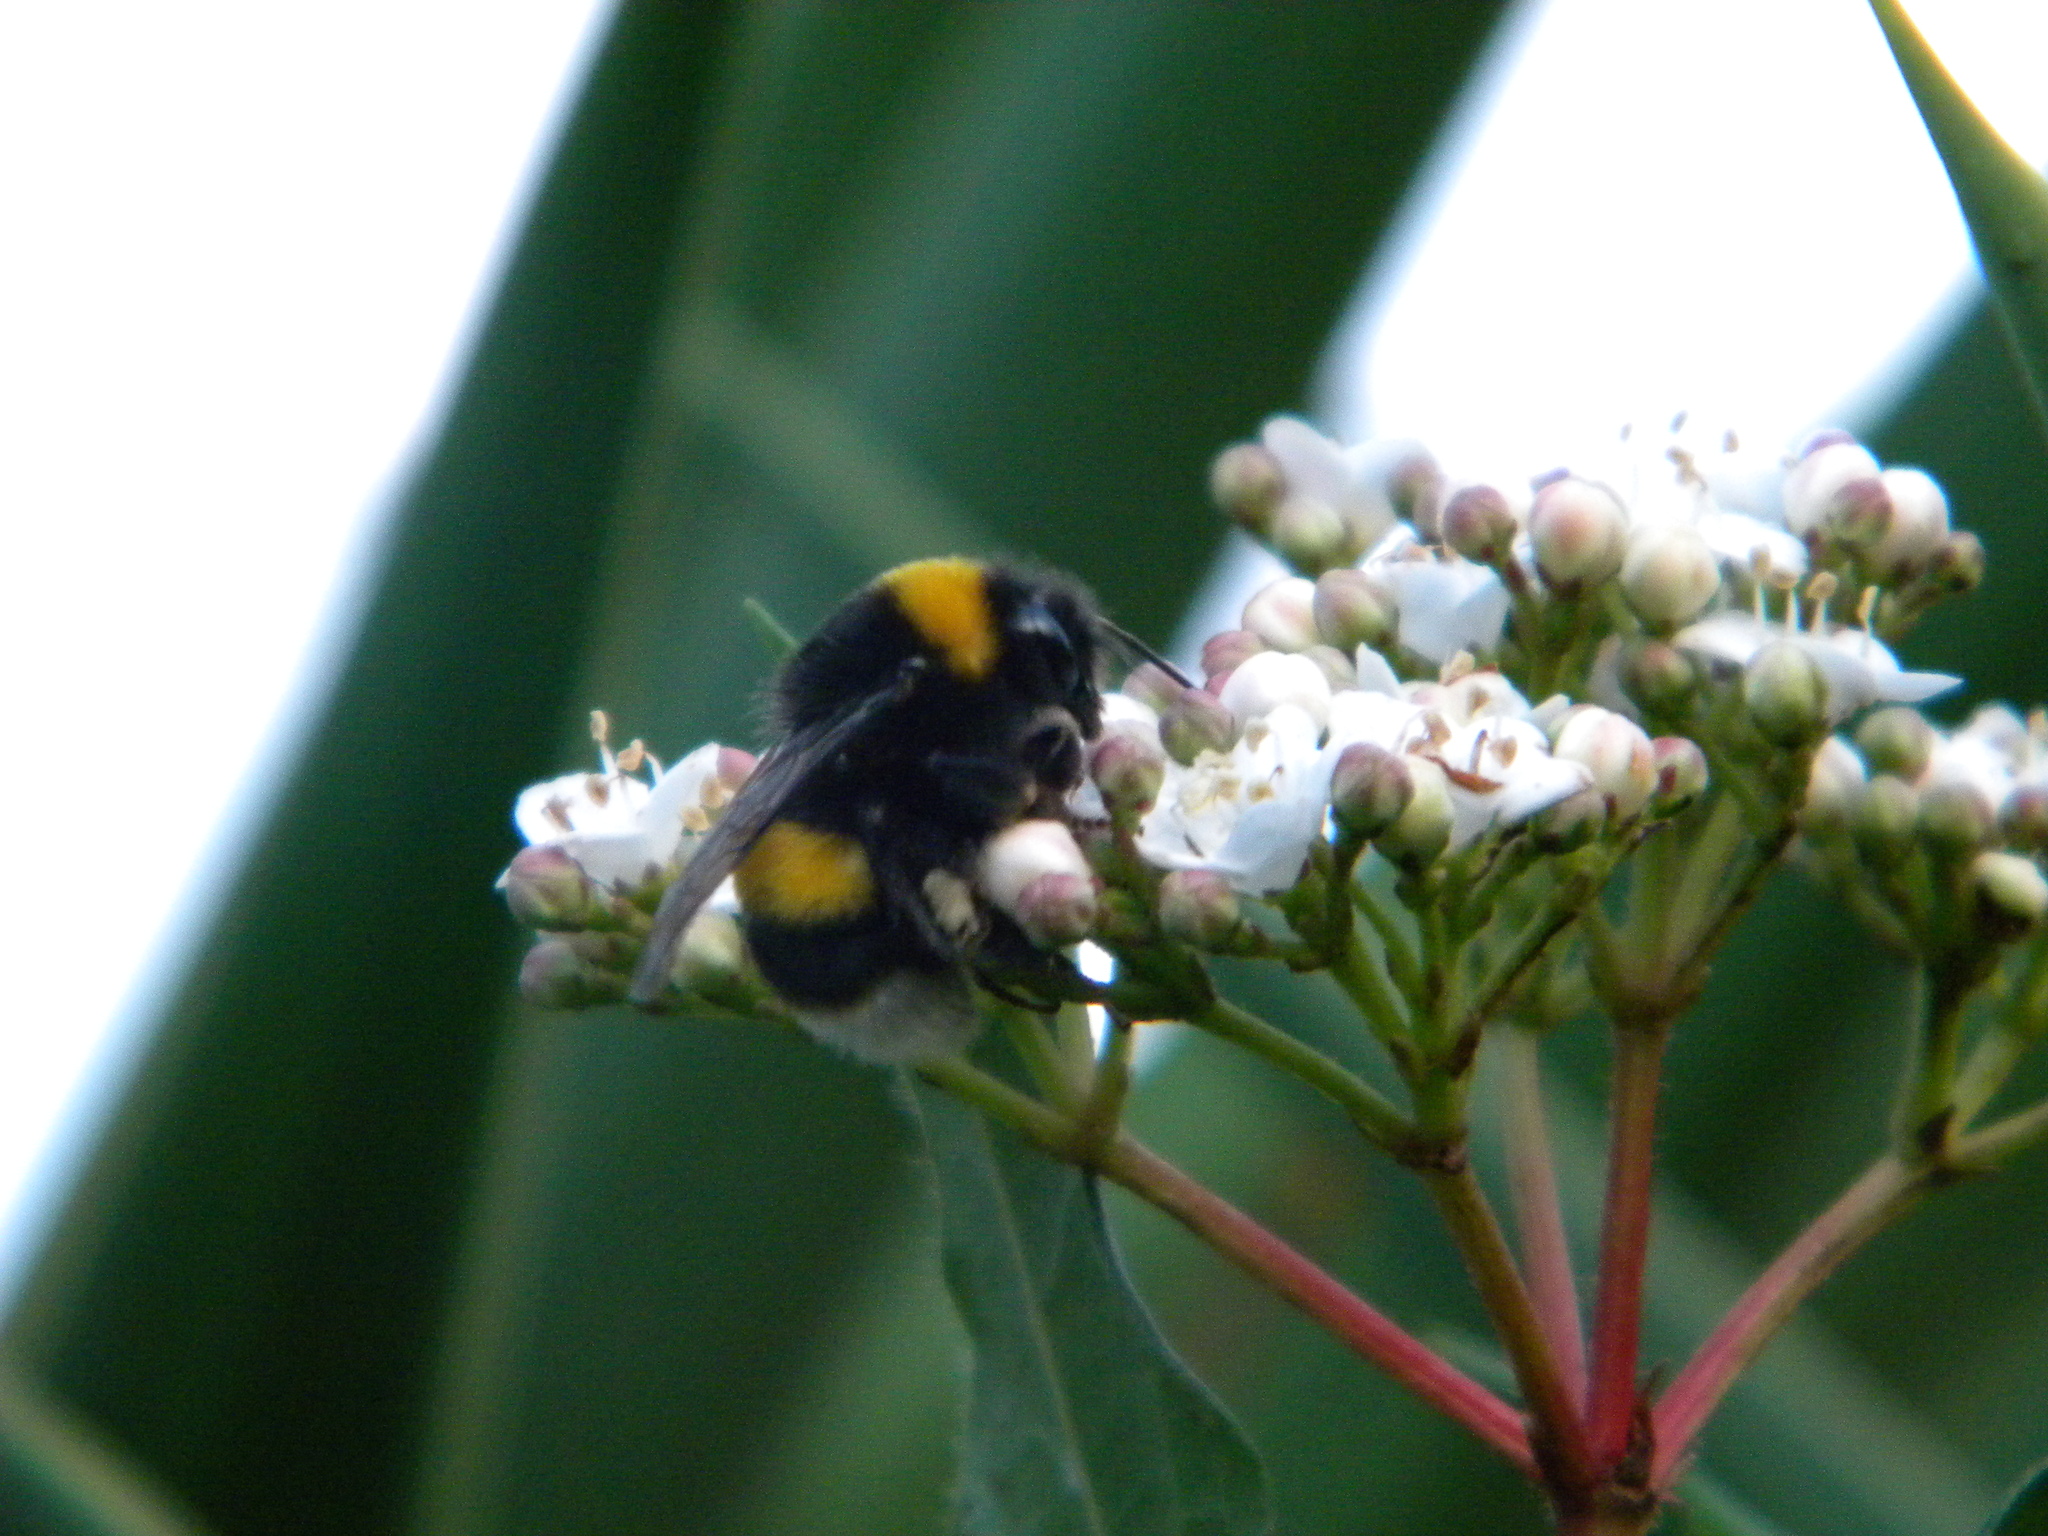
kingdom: Animalia
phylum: Arthropoda
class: Insecta
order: Hymenoptera
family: Apidae
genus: Bombus
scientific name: Bombus terrestris
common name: Buff-tailed bumblebee
